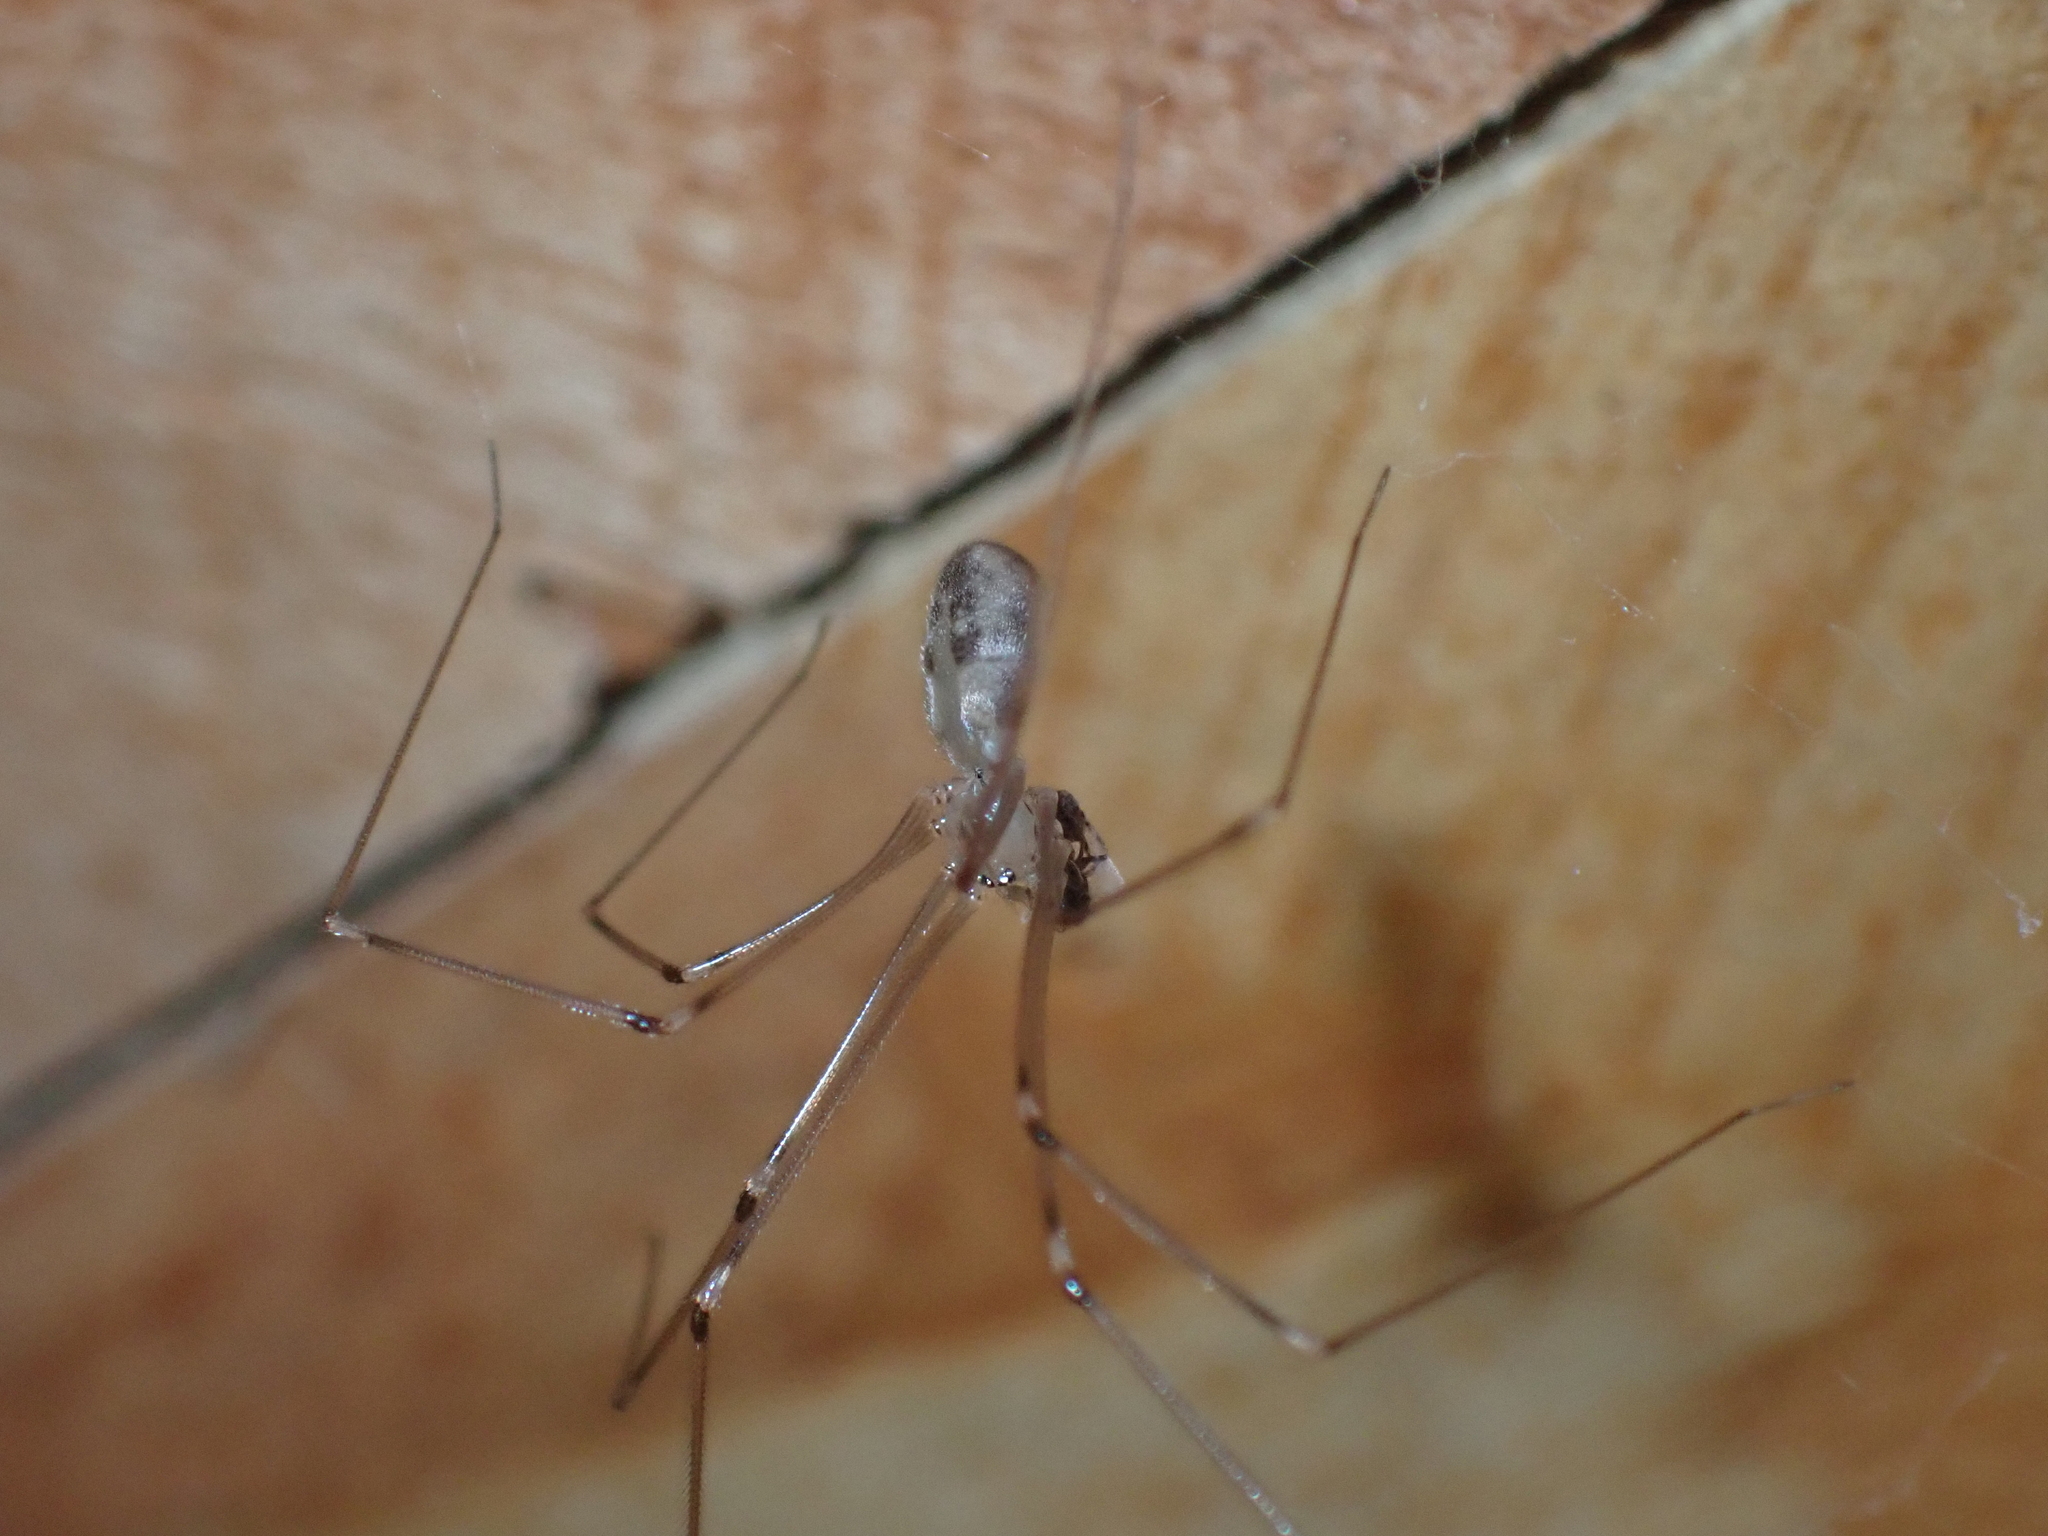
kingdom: Animalia
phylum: Arthropoda
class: Arachnida
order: Araneae
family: Pholcidae
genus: Pholcus
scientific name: Pholcus phalangioides
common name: Longbodied cellar spider
